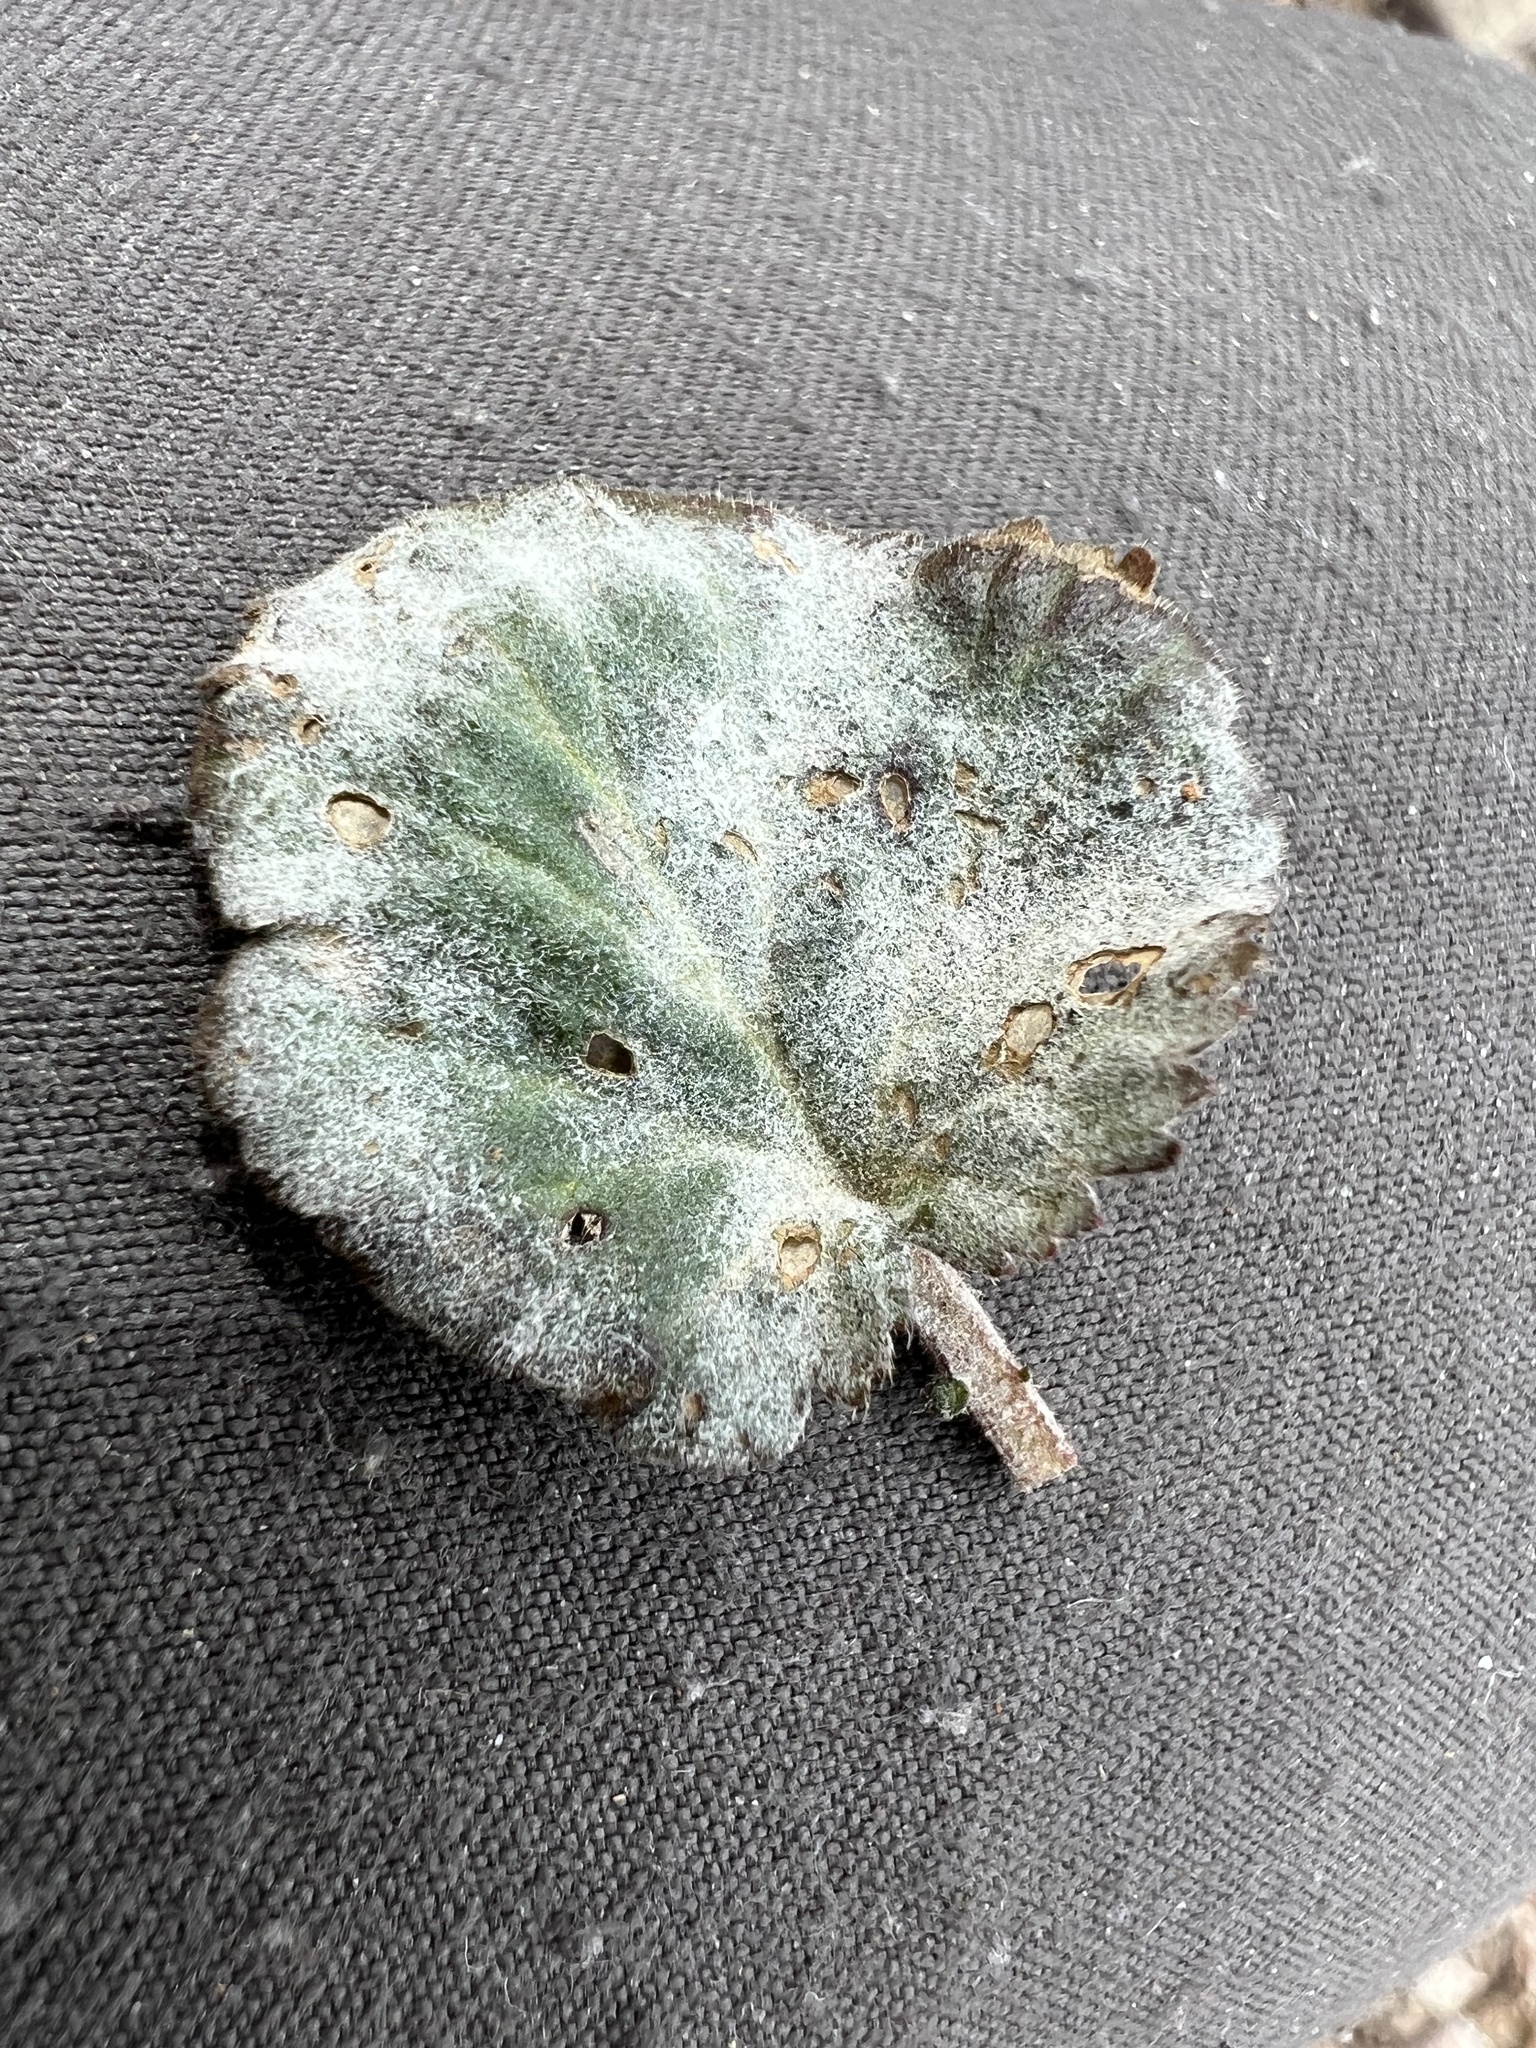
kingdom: Fungi
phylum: Ascomycota
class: Leotiomycetes
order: Helotiales
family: Erysiphaceae
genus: Podosphaera
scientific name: Podosphaera aphanis
